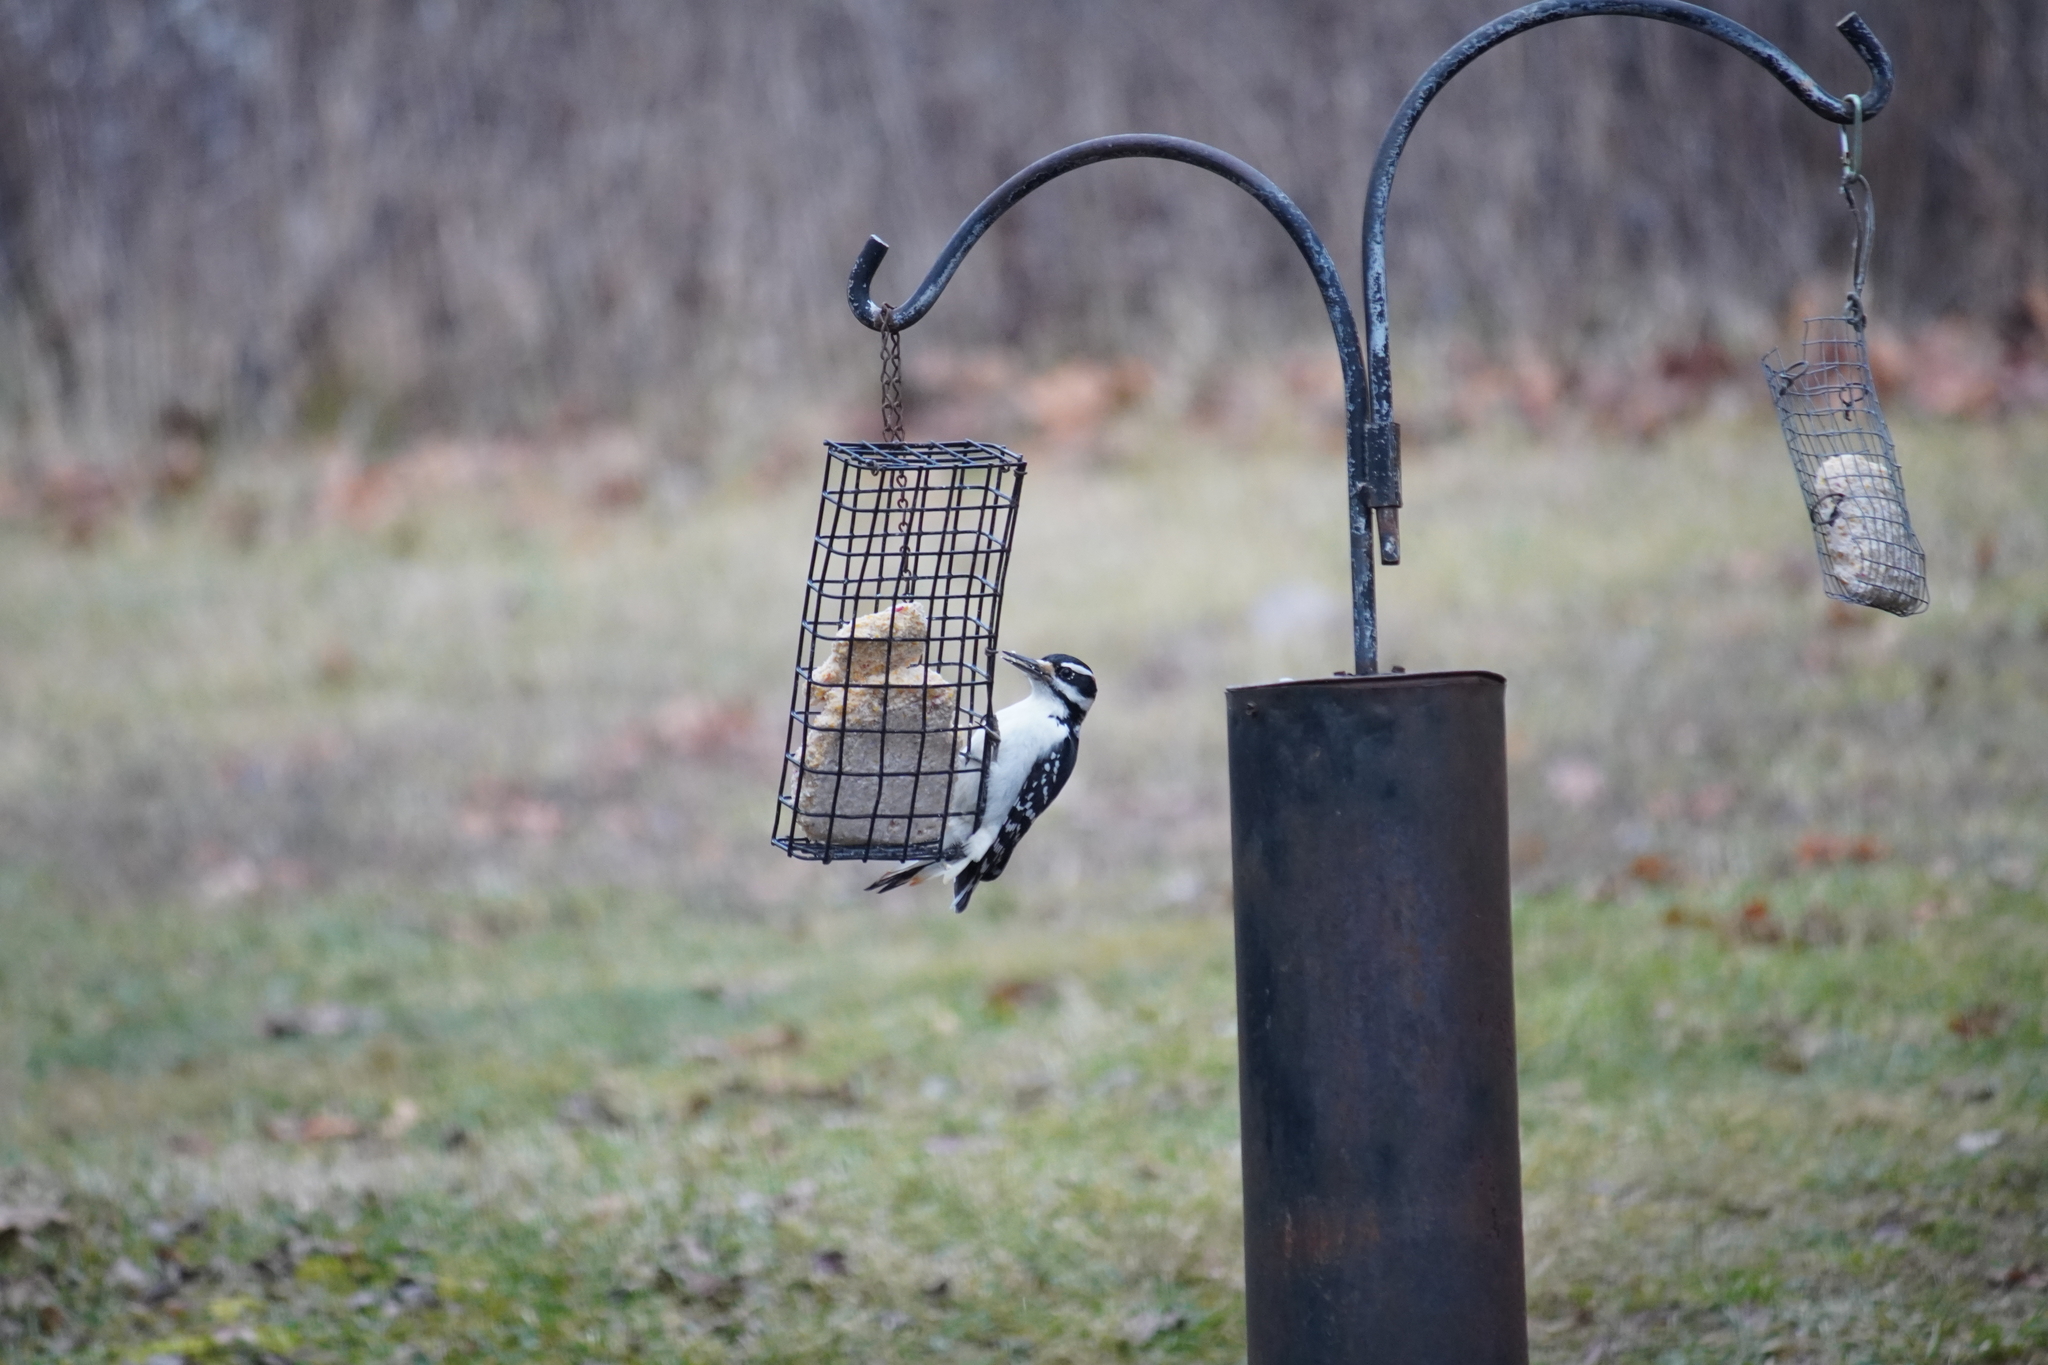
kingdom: Animalia
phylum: Chordata
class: Aves
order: Piciformes
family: Picidae
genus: Leuconotopicus
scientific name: Leuconotopicus villosus
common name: Hairy woodpecker
